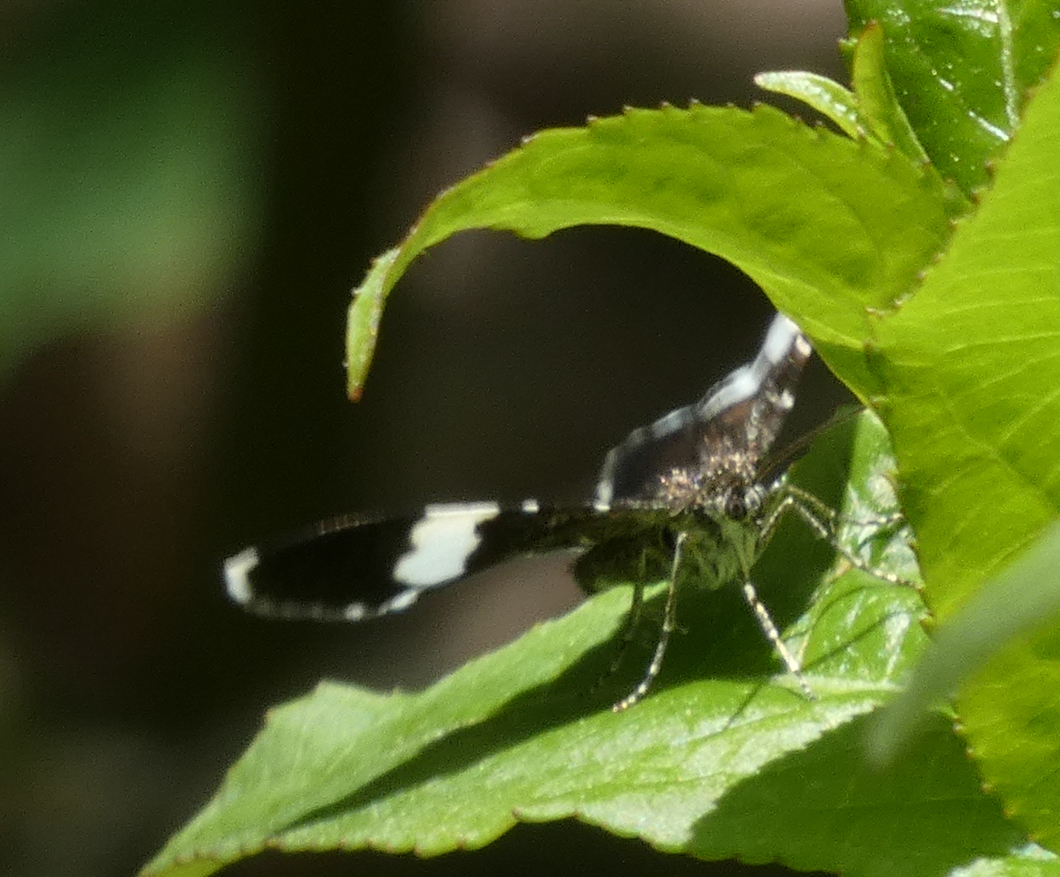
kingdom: Animalia
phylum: Arthropoda
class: Insecta
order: Lepidoptera
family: Geometridae
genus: Trichodezia
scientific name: Trichodezia albovittata
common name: White striped black
